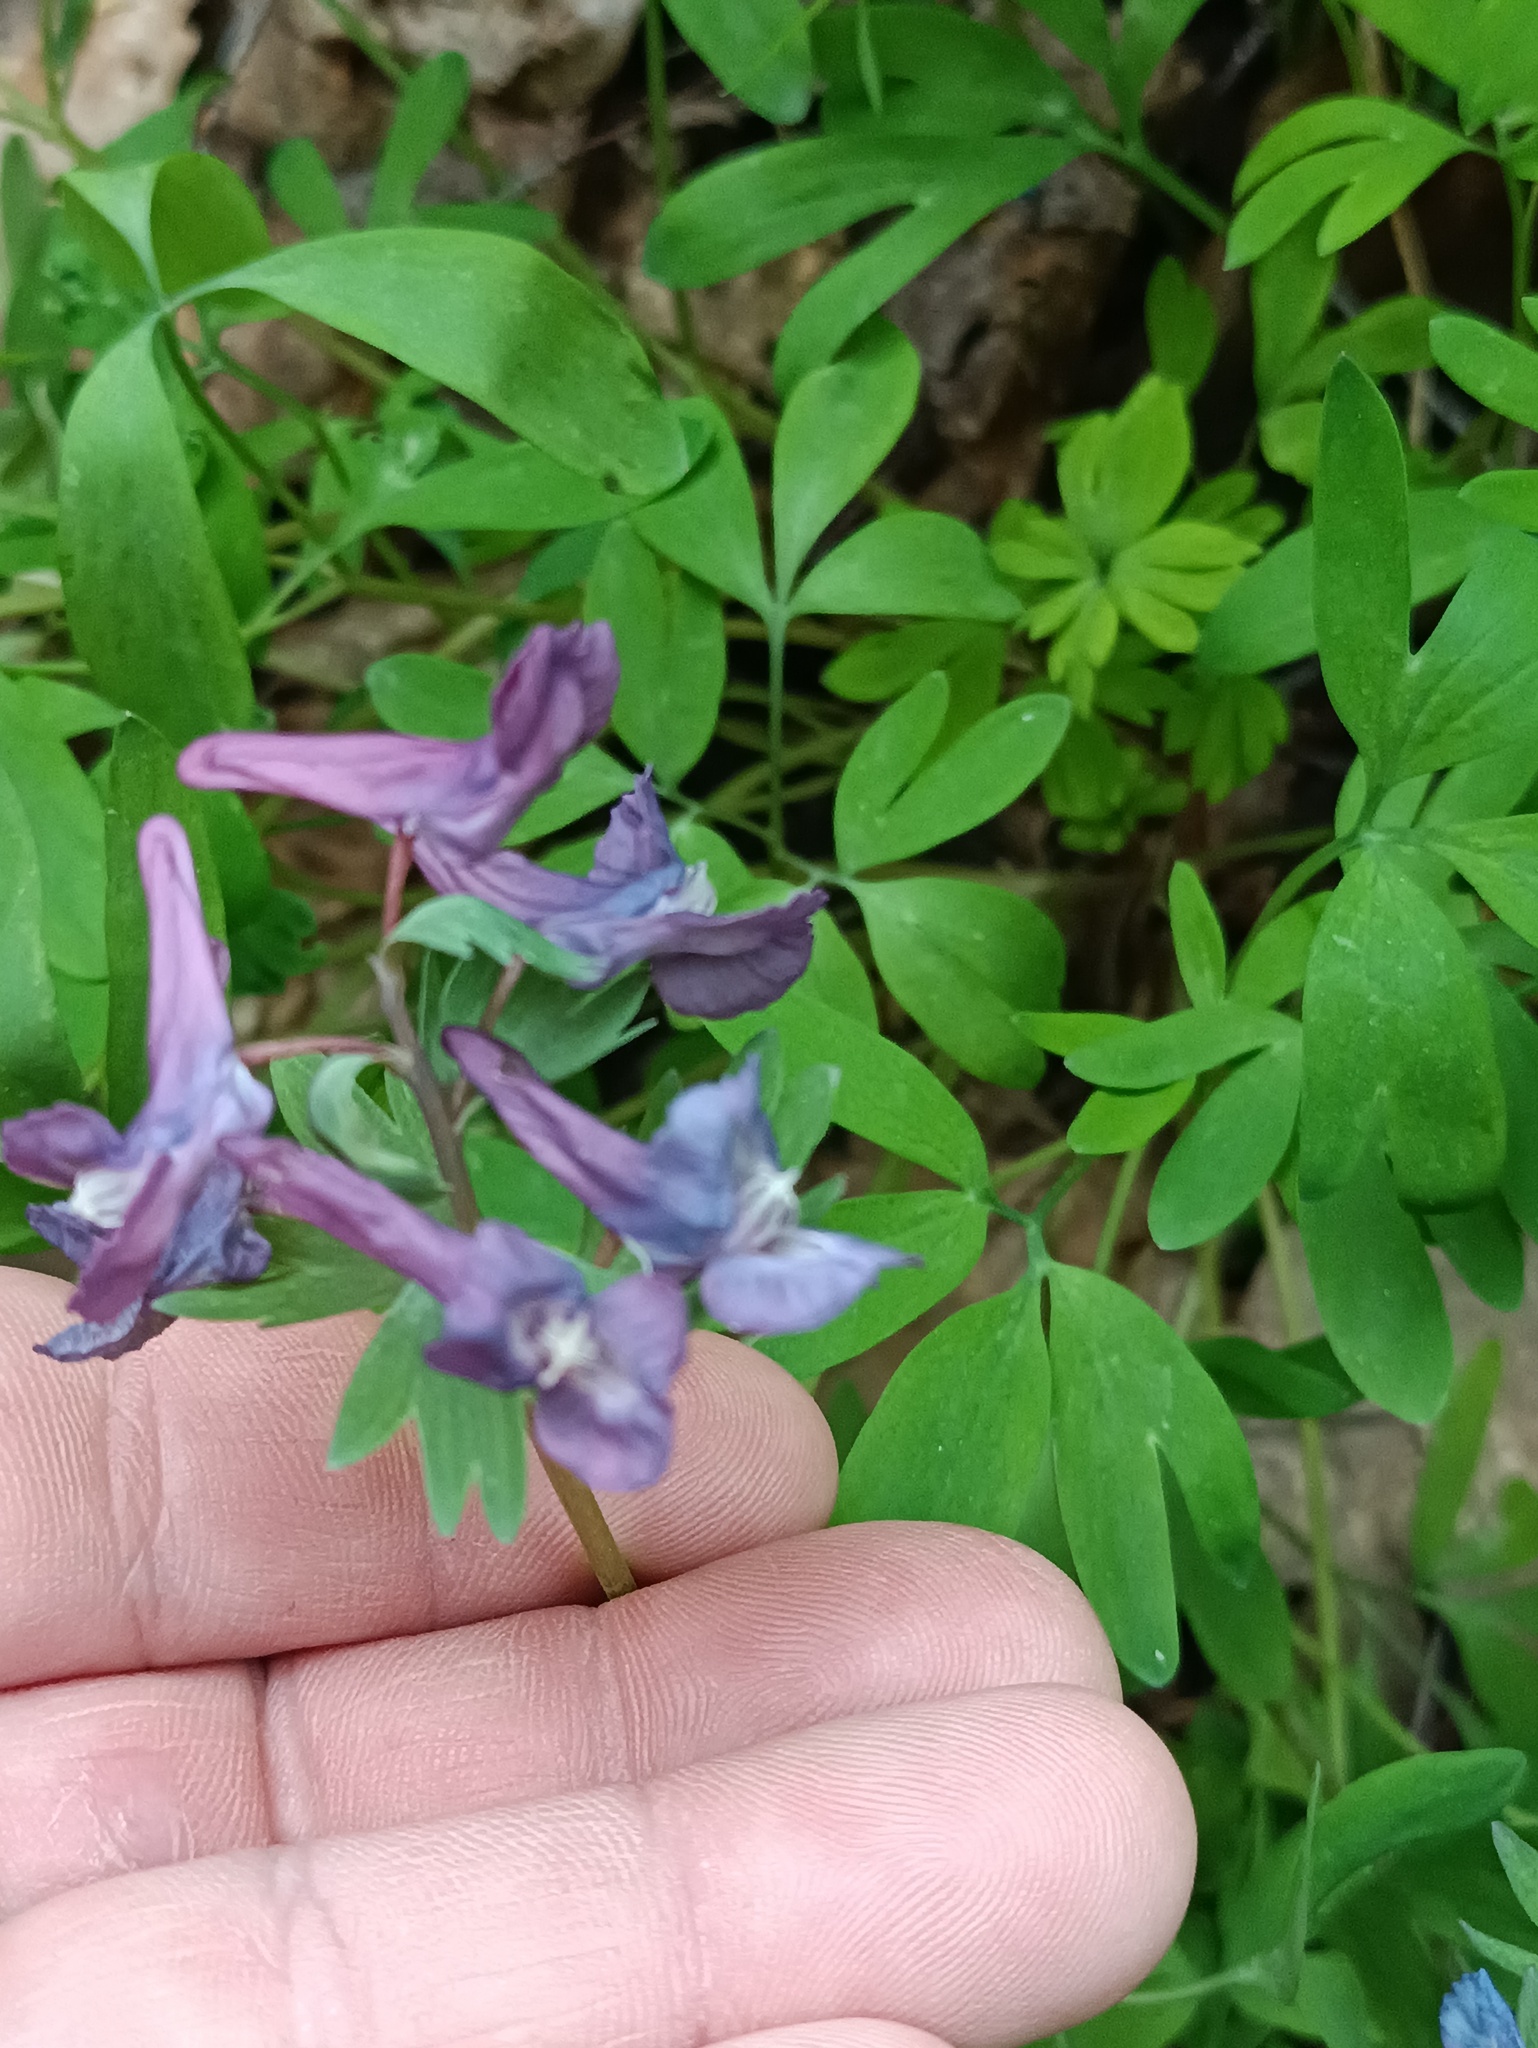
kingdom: Plantae
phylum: Tracheophyta
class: Magnoliopsida
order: Ranunculales
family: Papaveraceae
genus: Corydalis
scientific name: Corydalis solida
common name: Bird-in-a-bush
